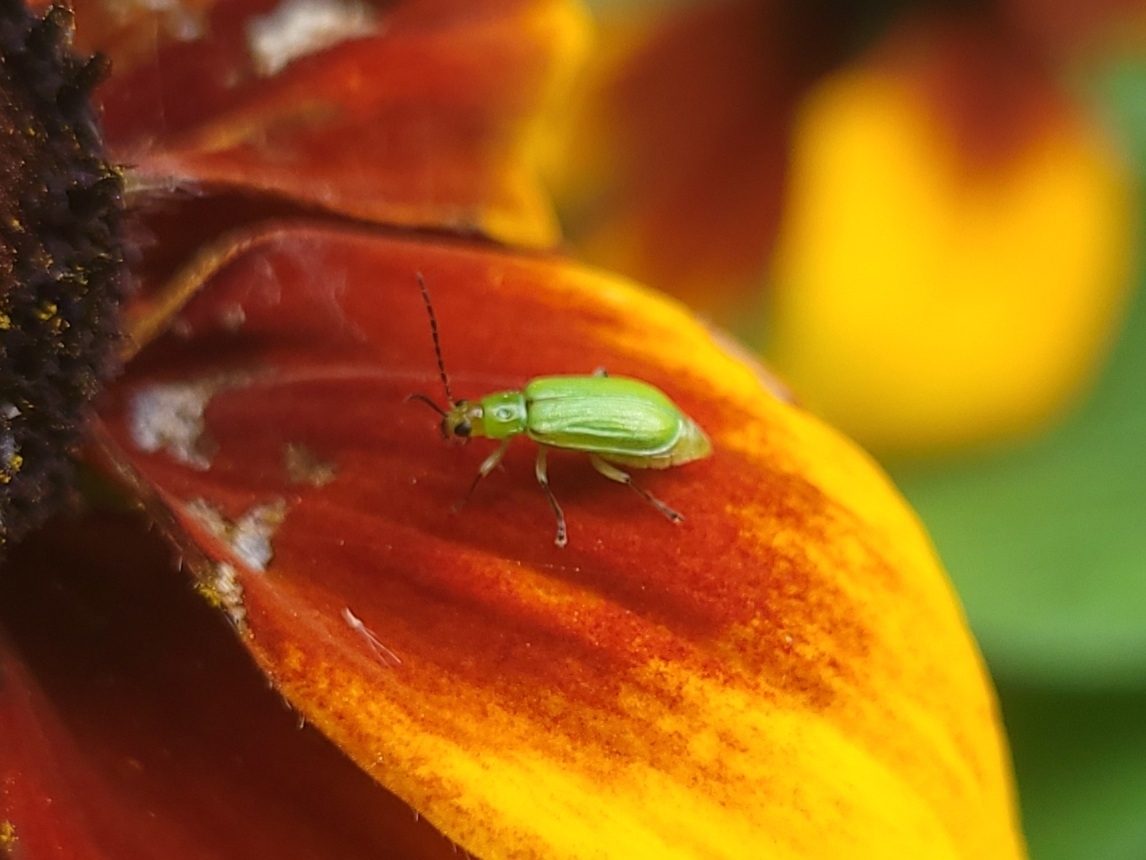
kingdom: Animalia
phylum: Arthropoda
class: Insecta
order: Coleoptera
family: Chrysomelidae
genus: Diabrotica
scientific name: Diabrotica barberi
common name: Northern corn rootworm
